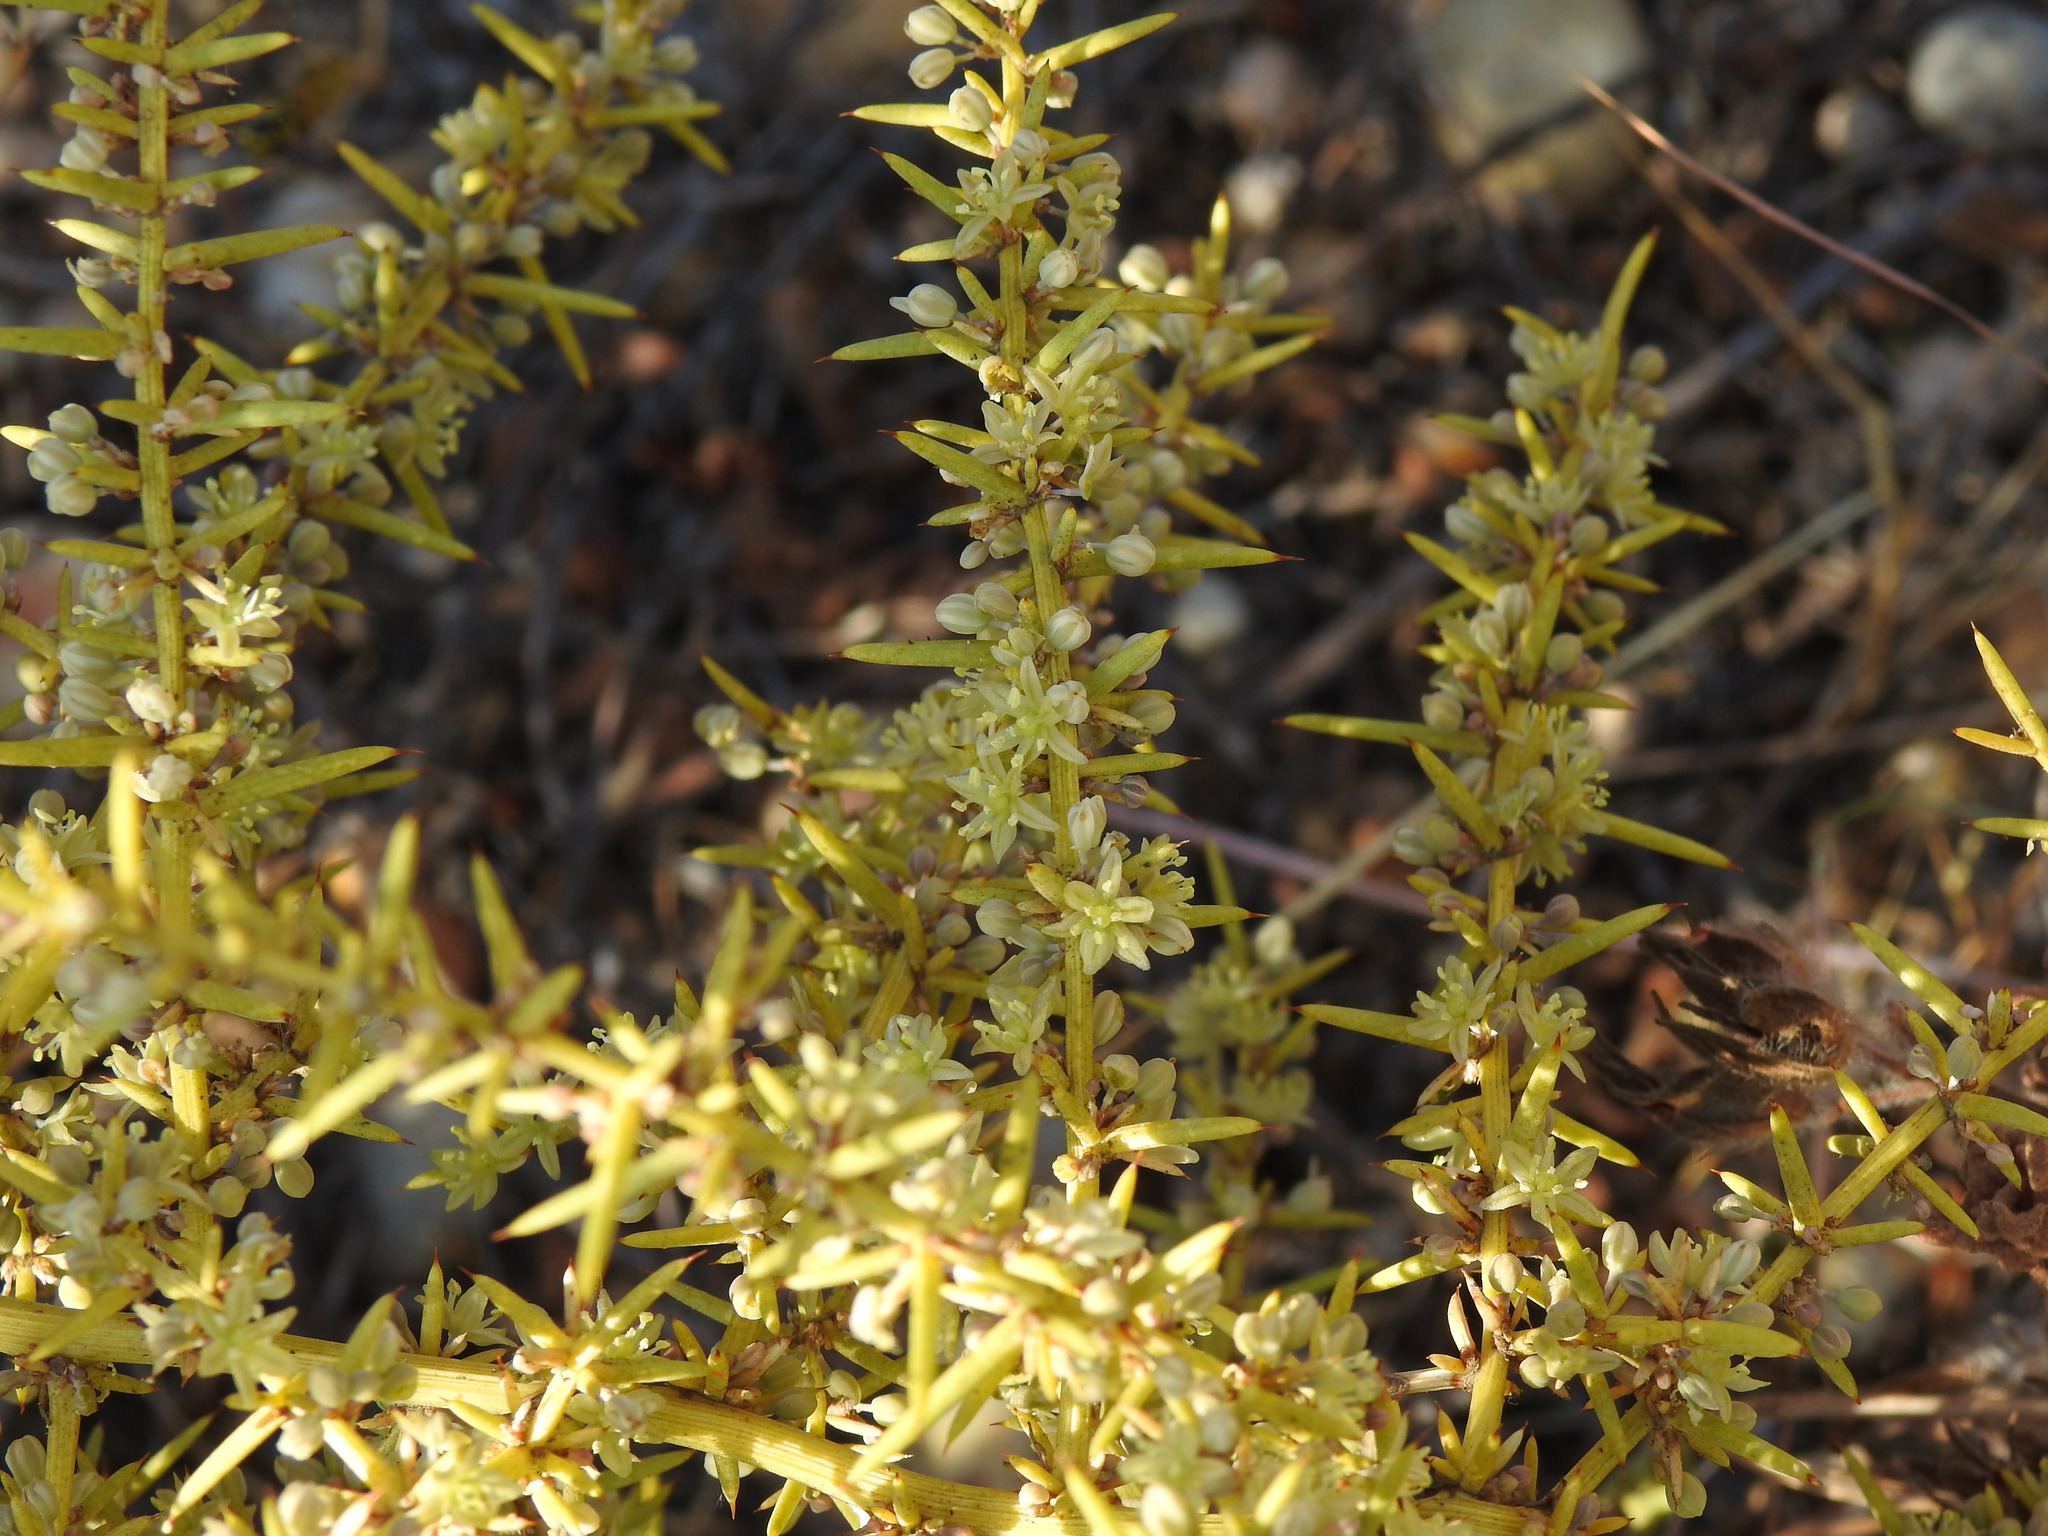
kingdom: Plantae
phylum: Tracheophyta
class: Liliopsida
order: Asparagales
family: Asparagaceae
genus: Asparagus
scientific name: Asparagus aphyllus
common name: Mediterranean asparagus
